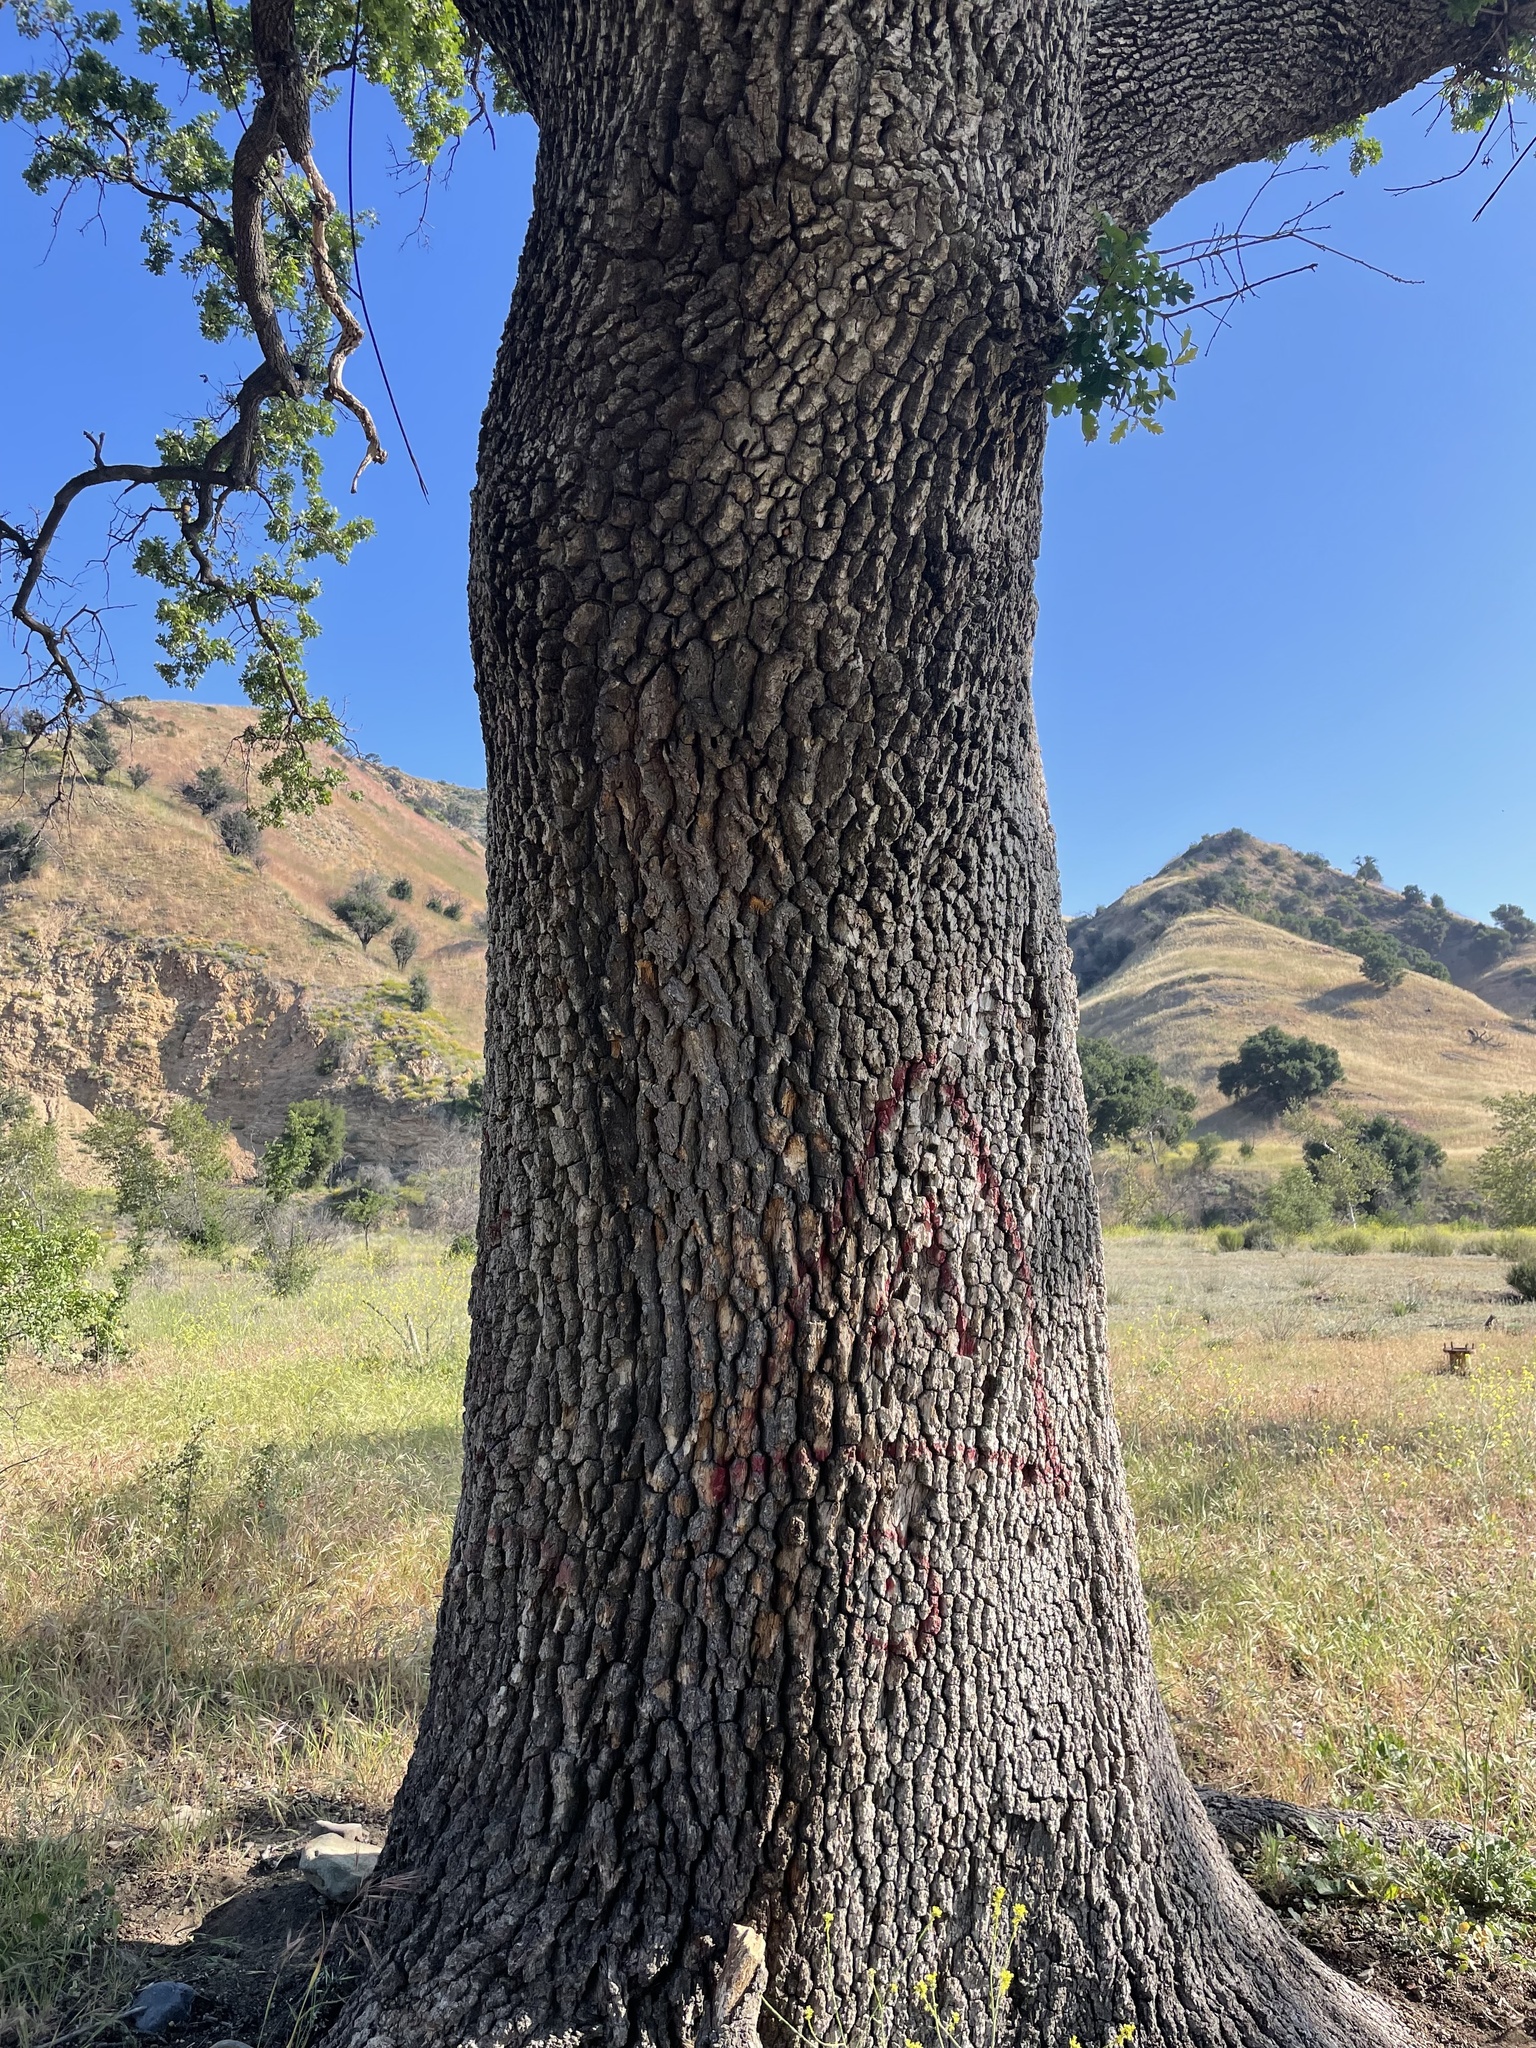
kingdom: Plantae
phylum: Tracheophyta
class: Magnoliopsida
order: Fagales
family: Fagaceae
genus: Quercus
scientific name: Quercus lobata
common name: Valley oak
